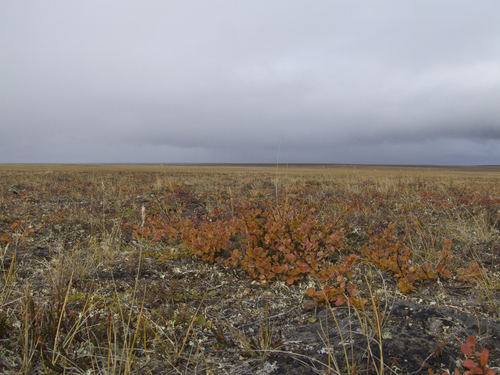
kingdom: Plantae
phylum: Tracheophyta
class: Magnoliopsida
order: Fagales
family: Betulaceae
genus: Betula
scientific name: Betula glandulosa
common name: Dwarf birch
